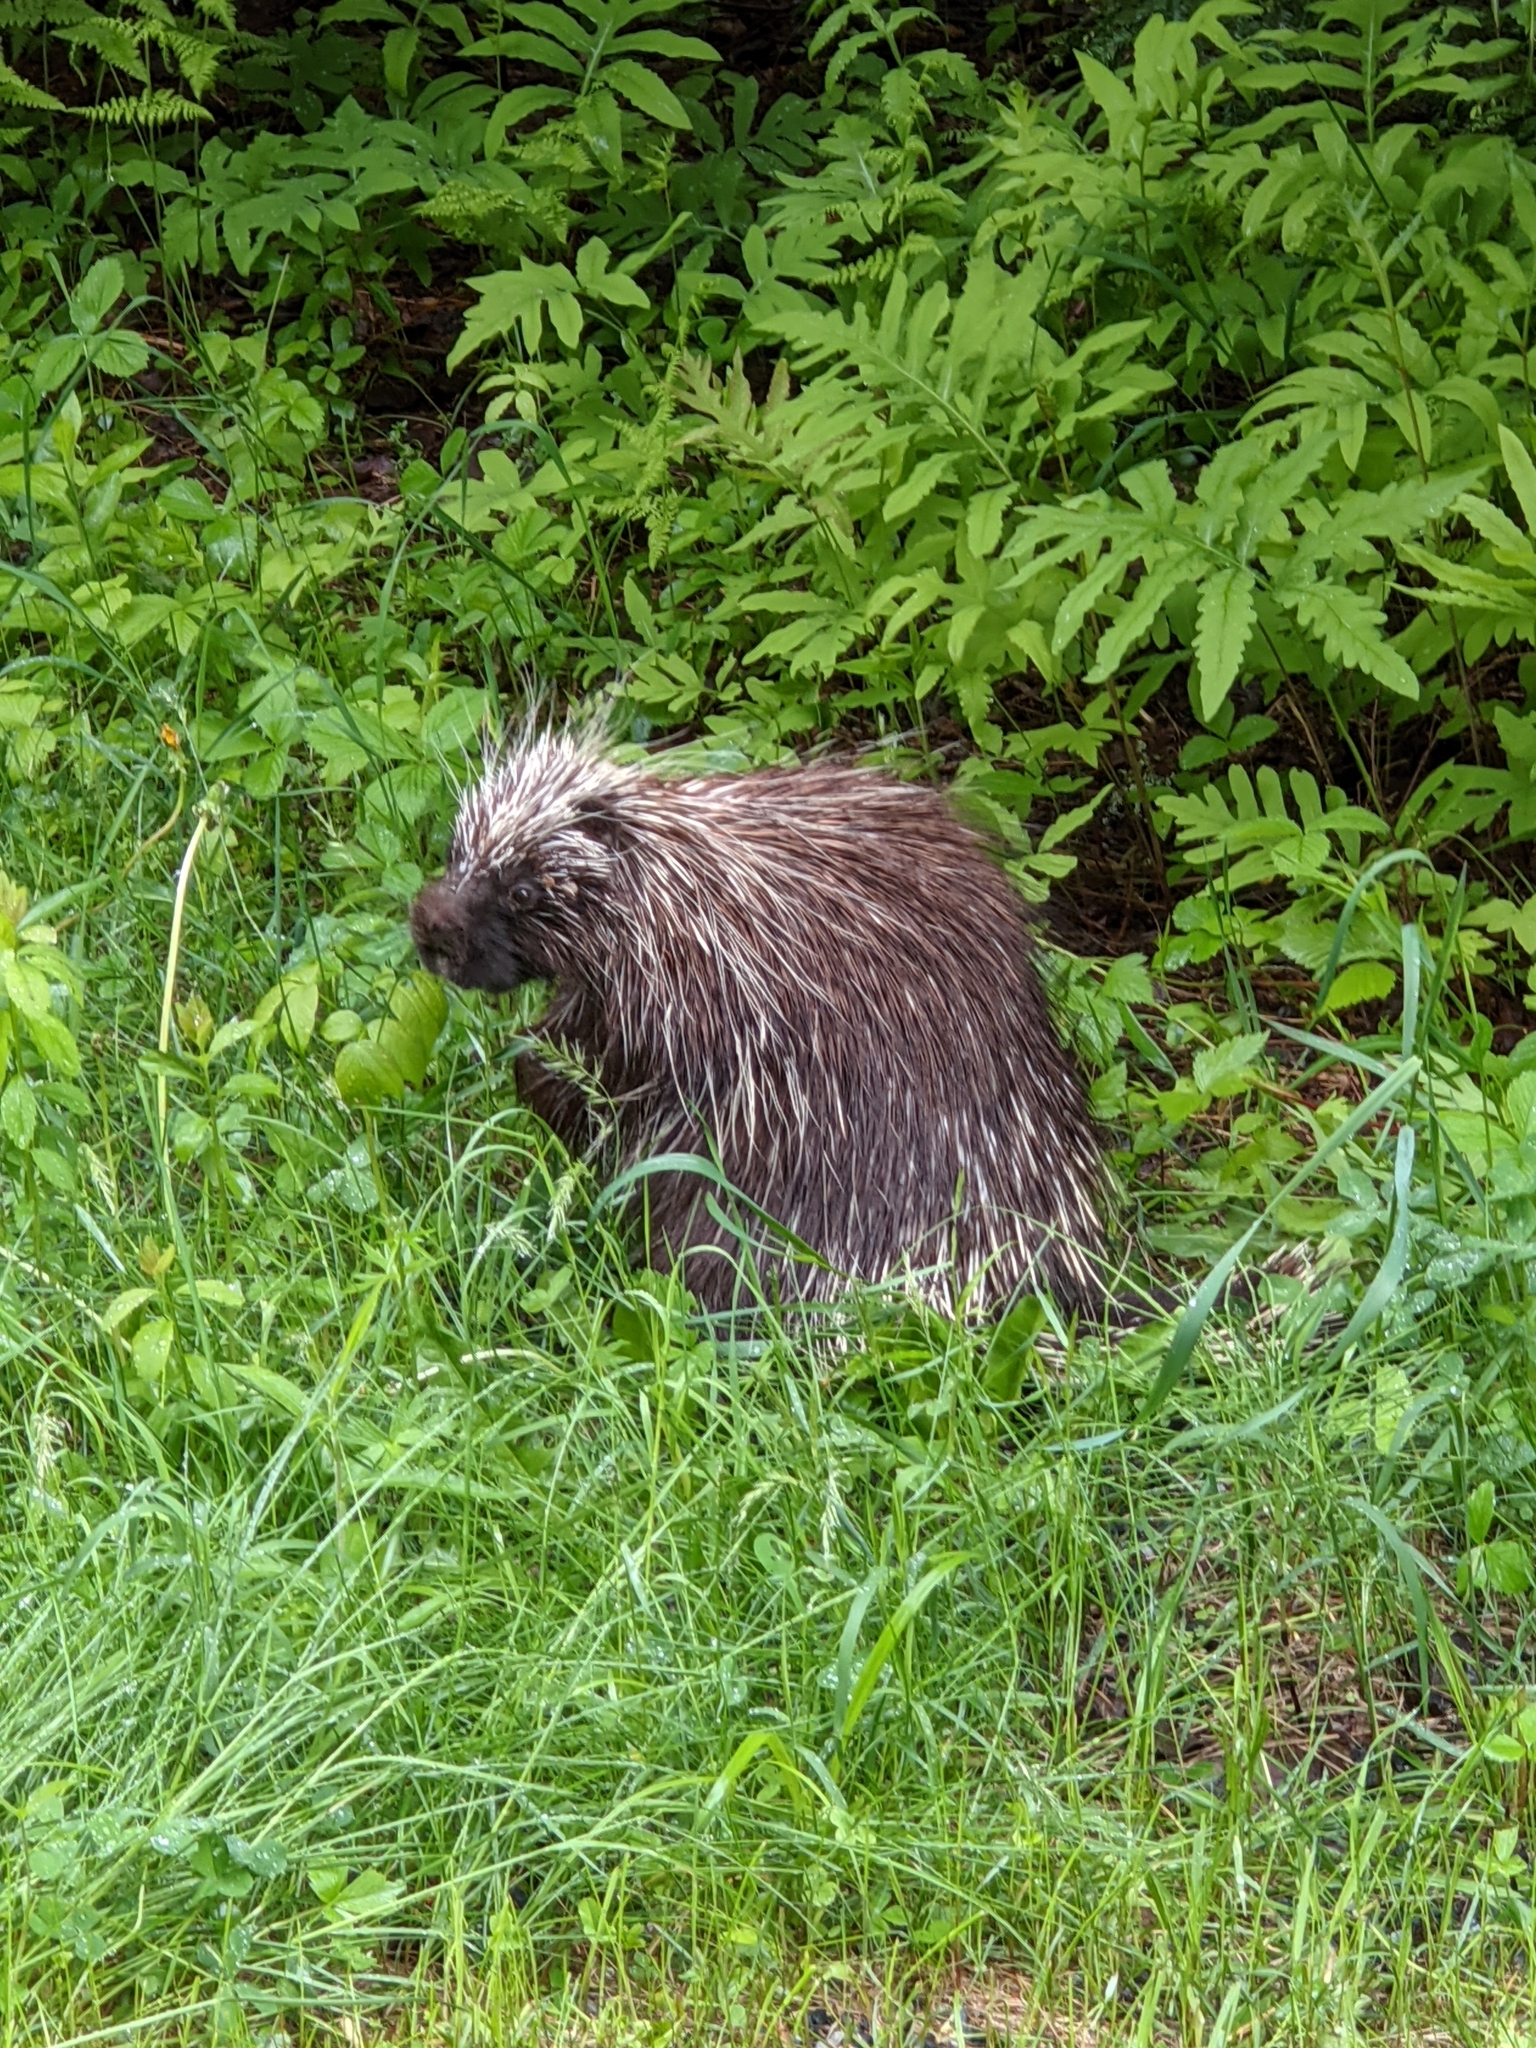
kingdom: Animalia
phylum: Chordata
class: Mammalia
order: Rodentia
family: Erethizontidae
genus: Erethizon
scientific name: Erethizon dorsatus
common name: North american porcupine
